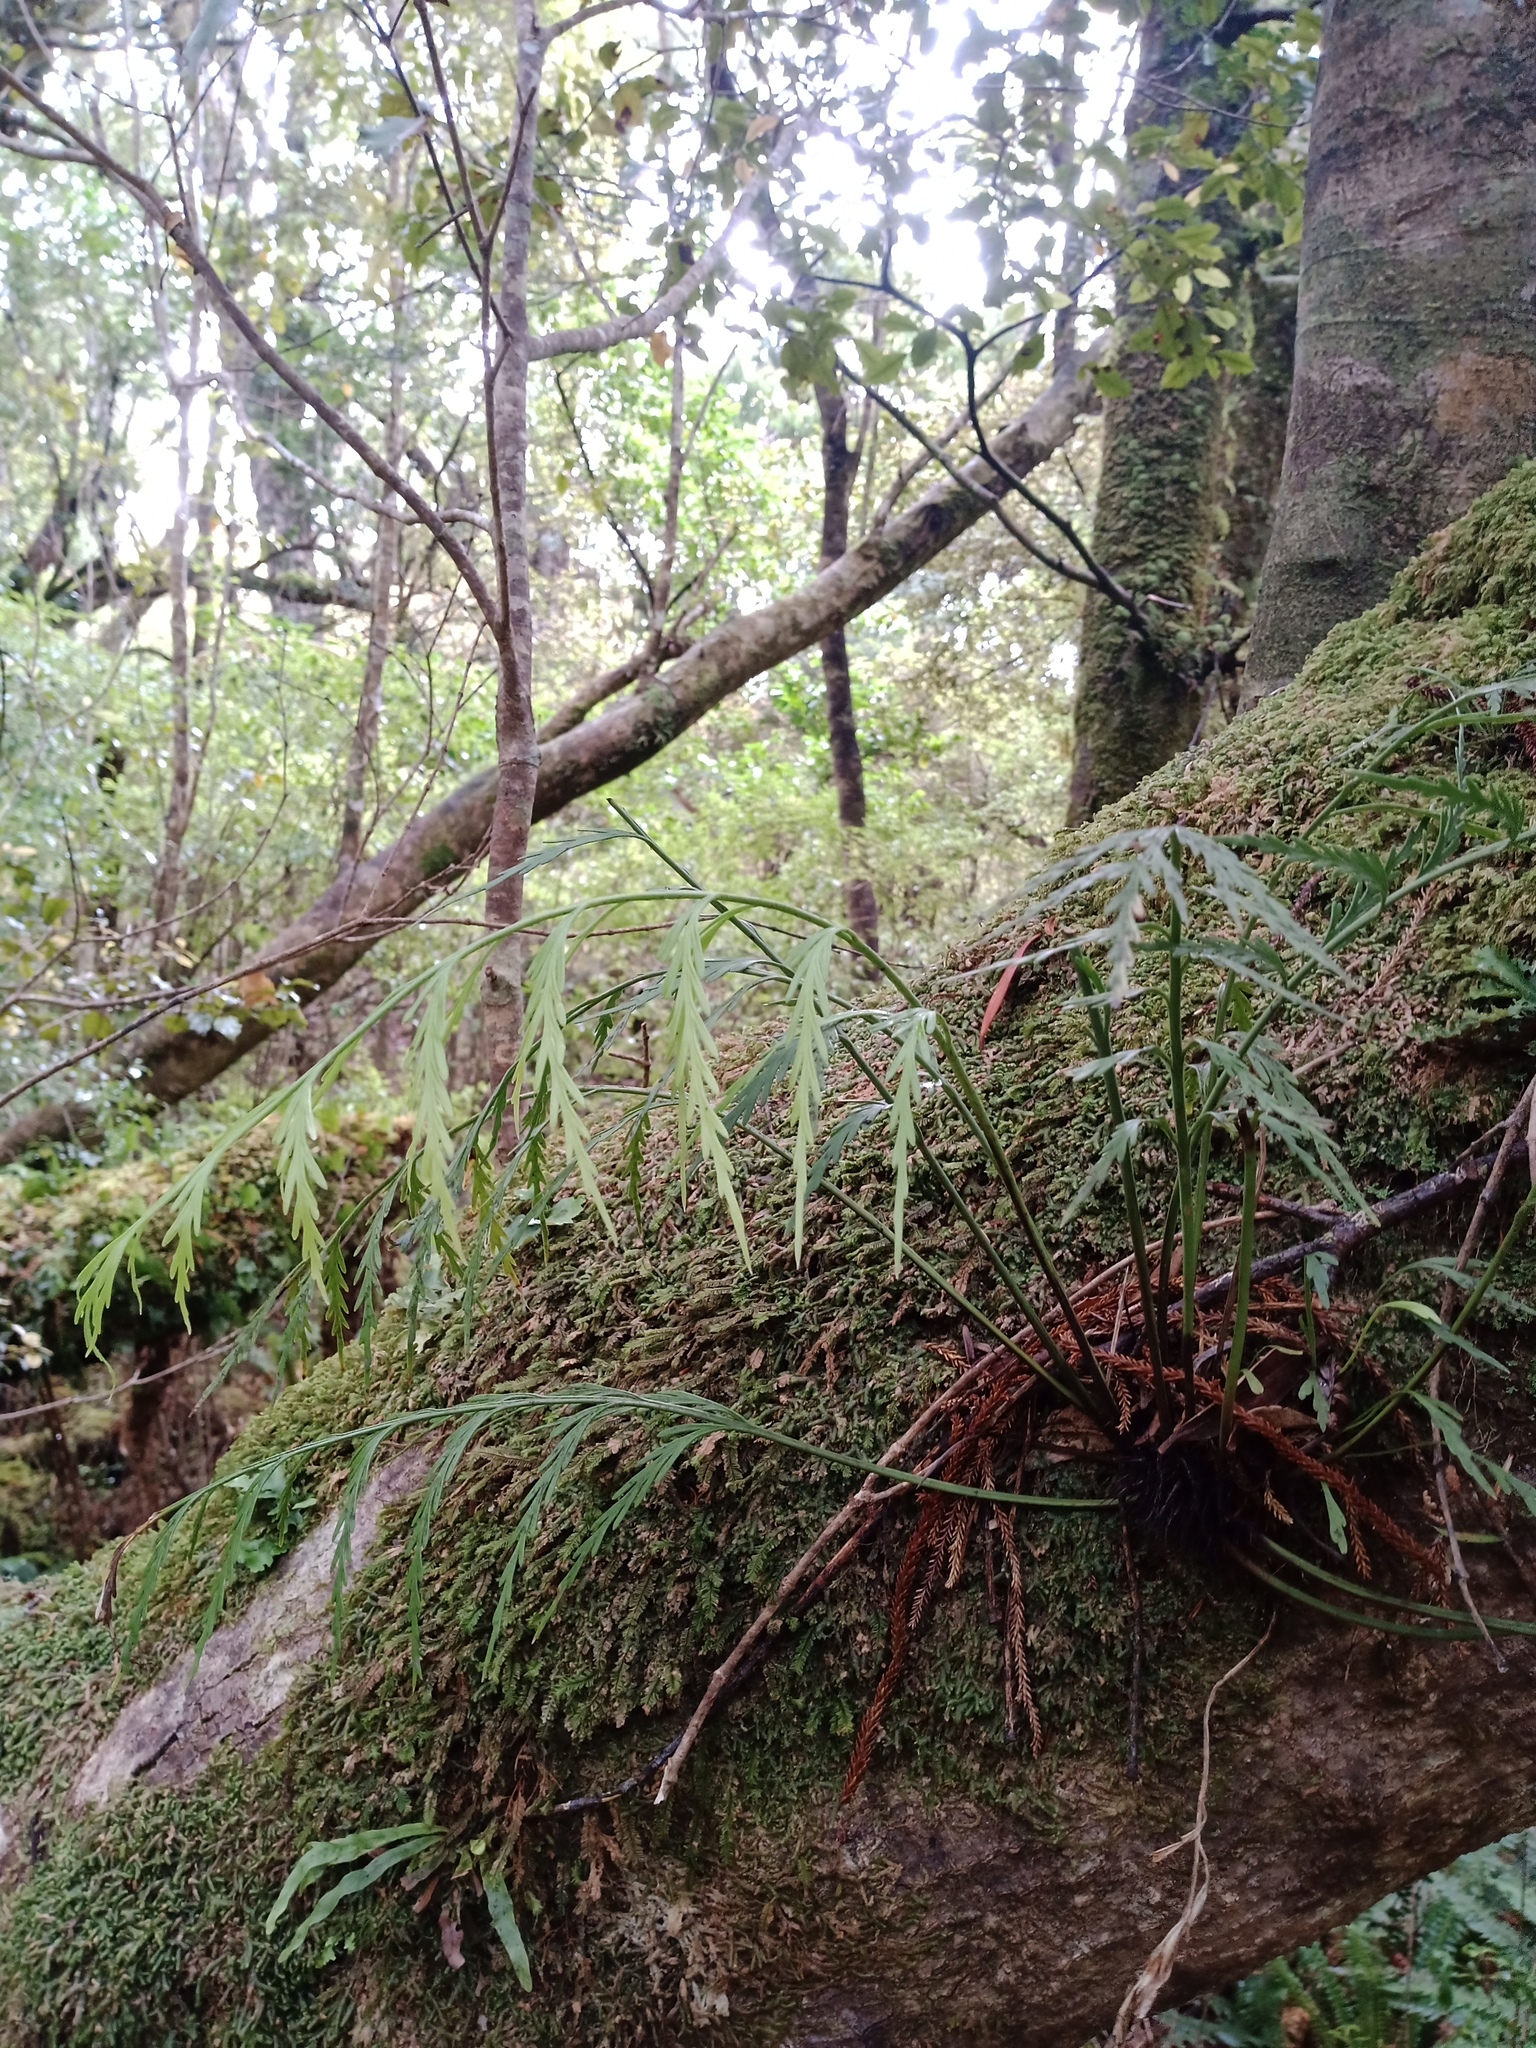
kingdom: Plantae
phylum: Tracheophyta
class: Polypodiopsida
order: Polypodiales
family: Aspleniaceae
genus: Asplenium
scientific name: Asplenium flaccidum
